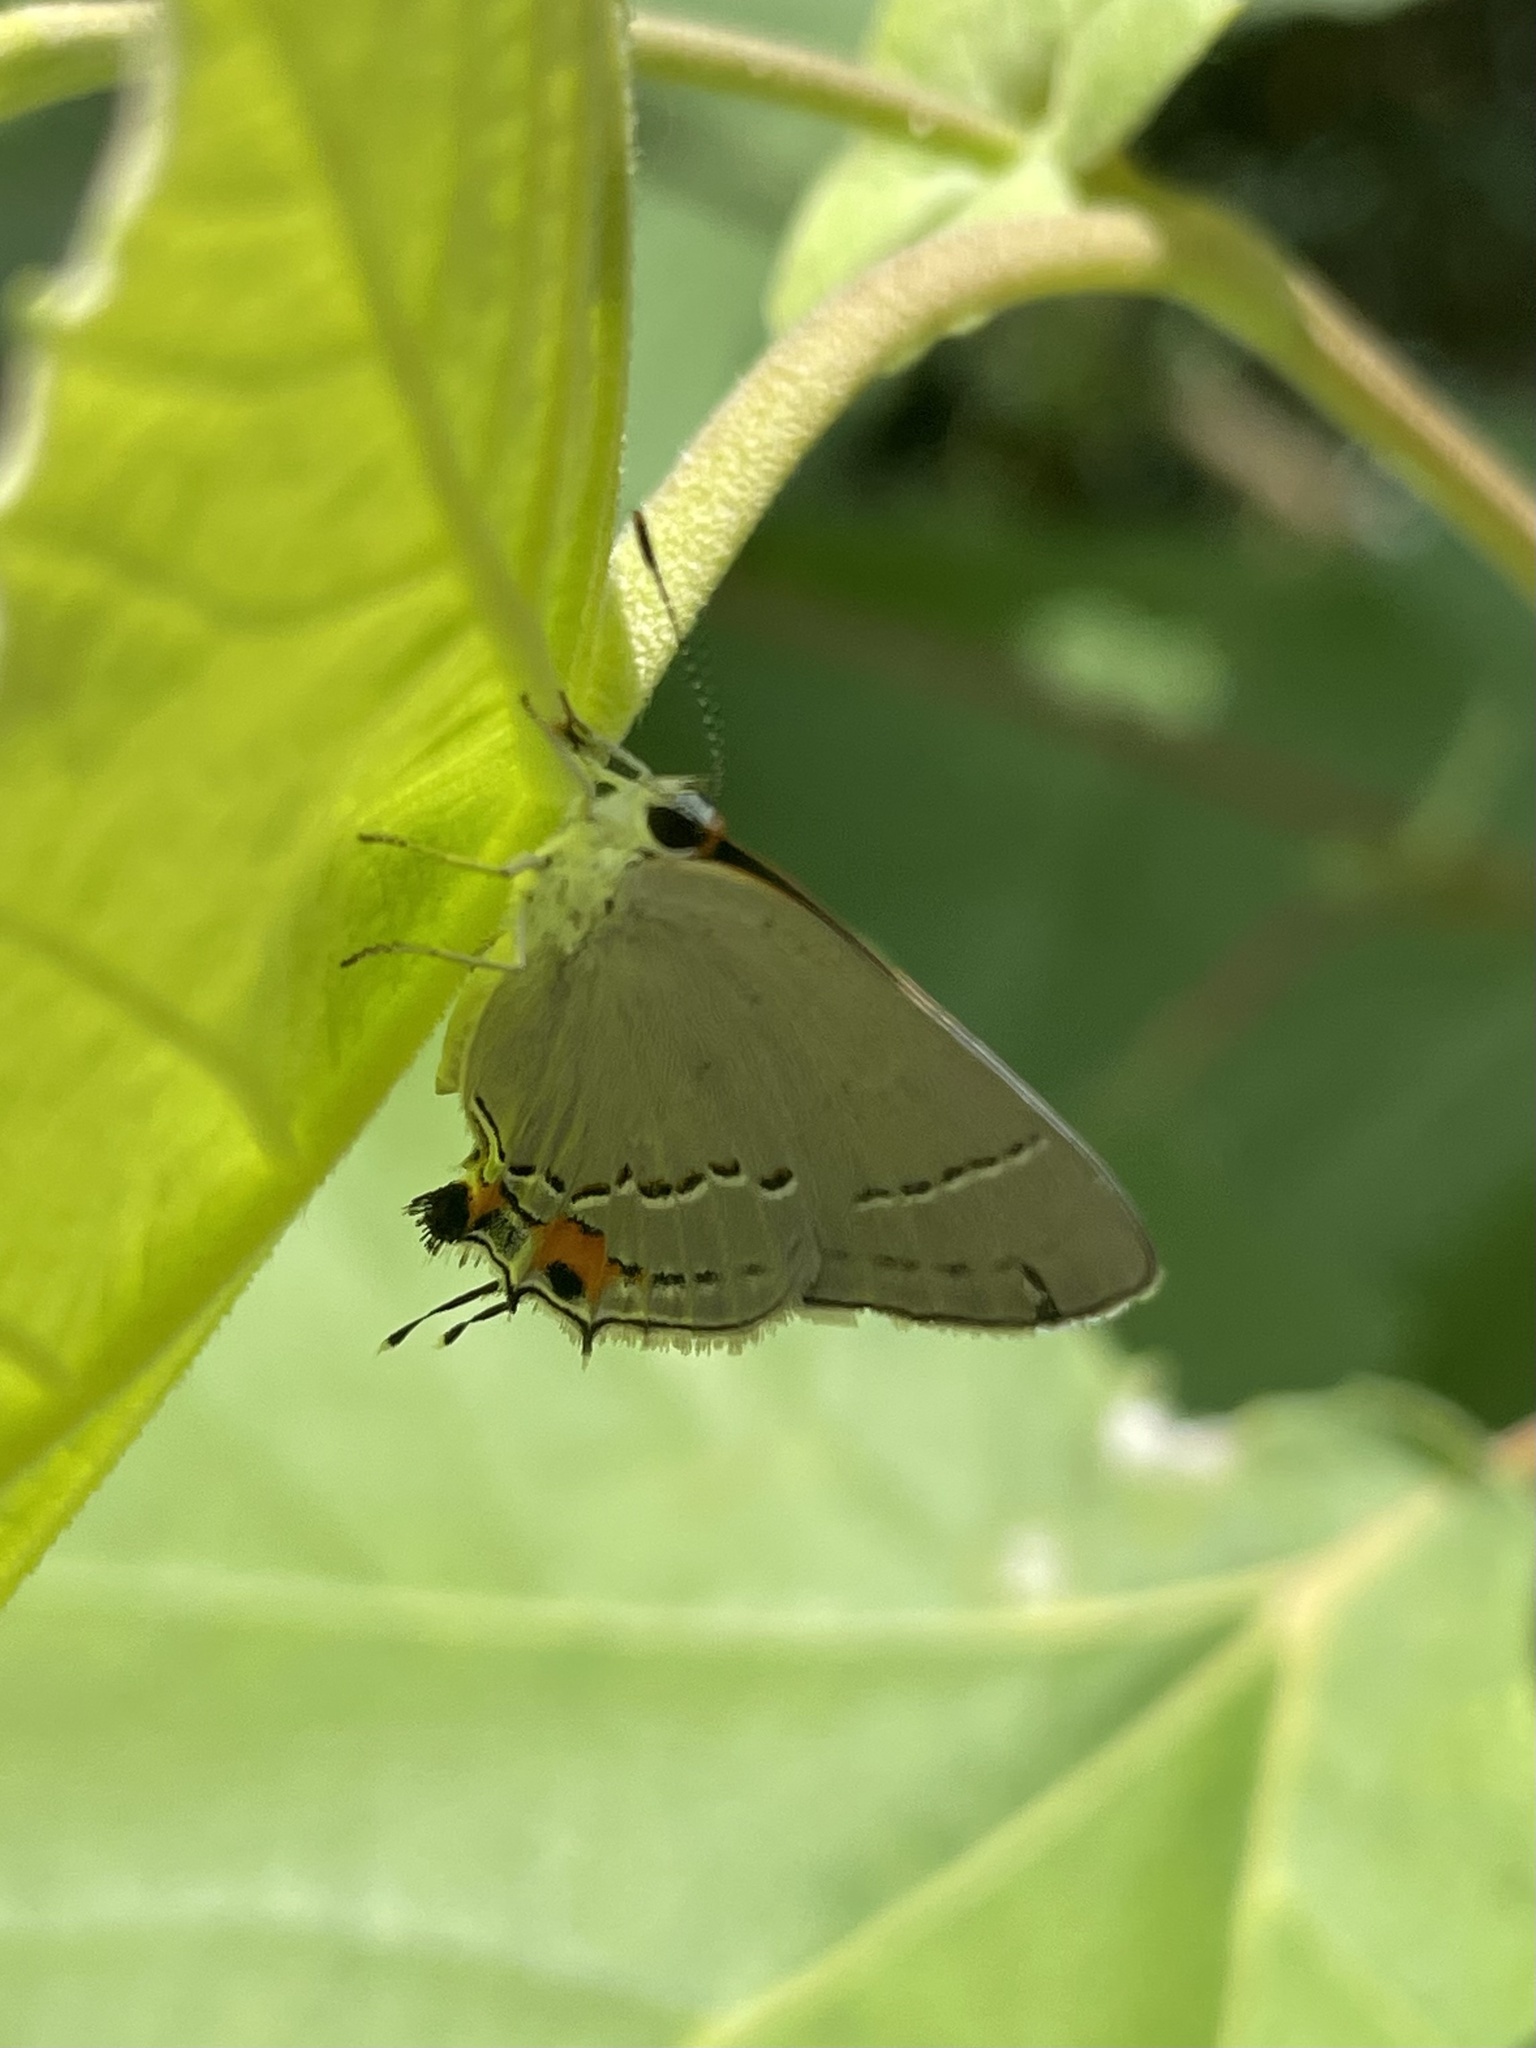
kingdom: Animalia
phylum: Arthropoda
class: Insecta
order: Lepidoptera
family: Lycaenidae
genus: Strymon
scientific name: Strymon melinus
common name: Gray hairstreak
